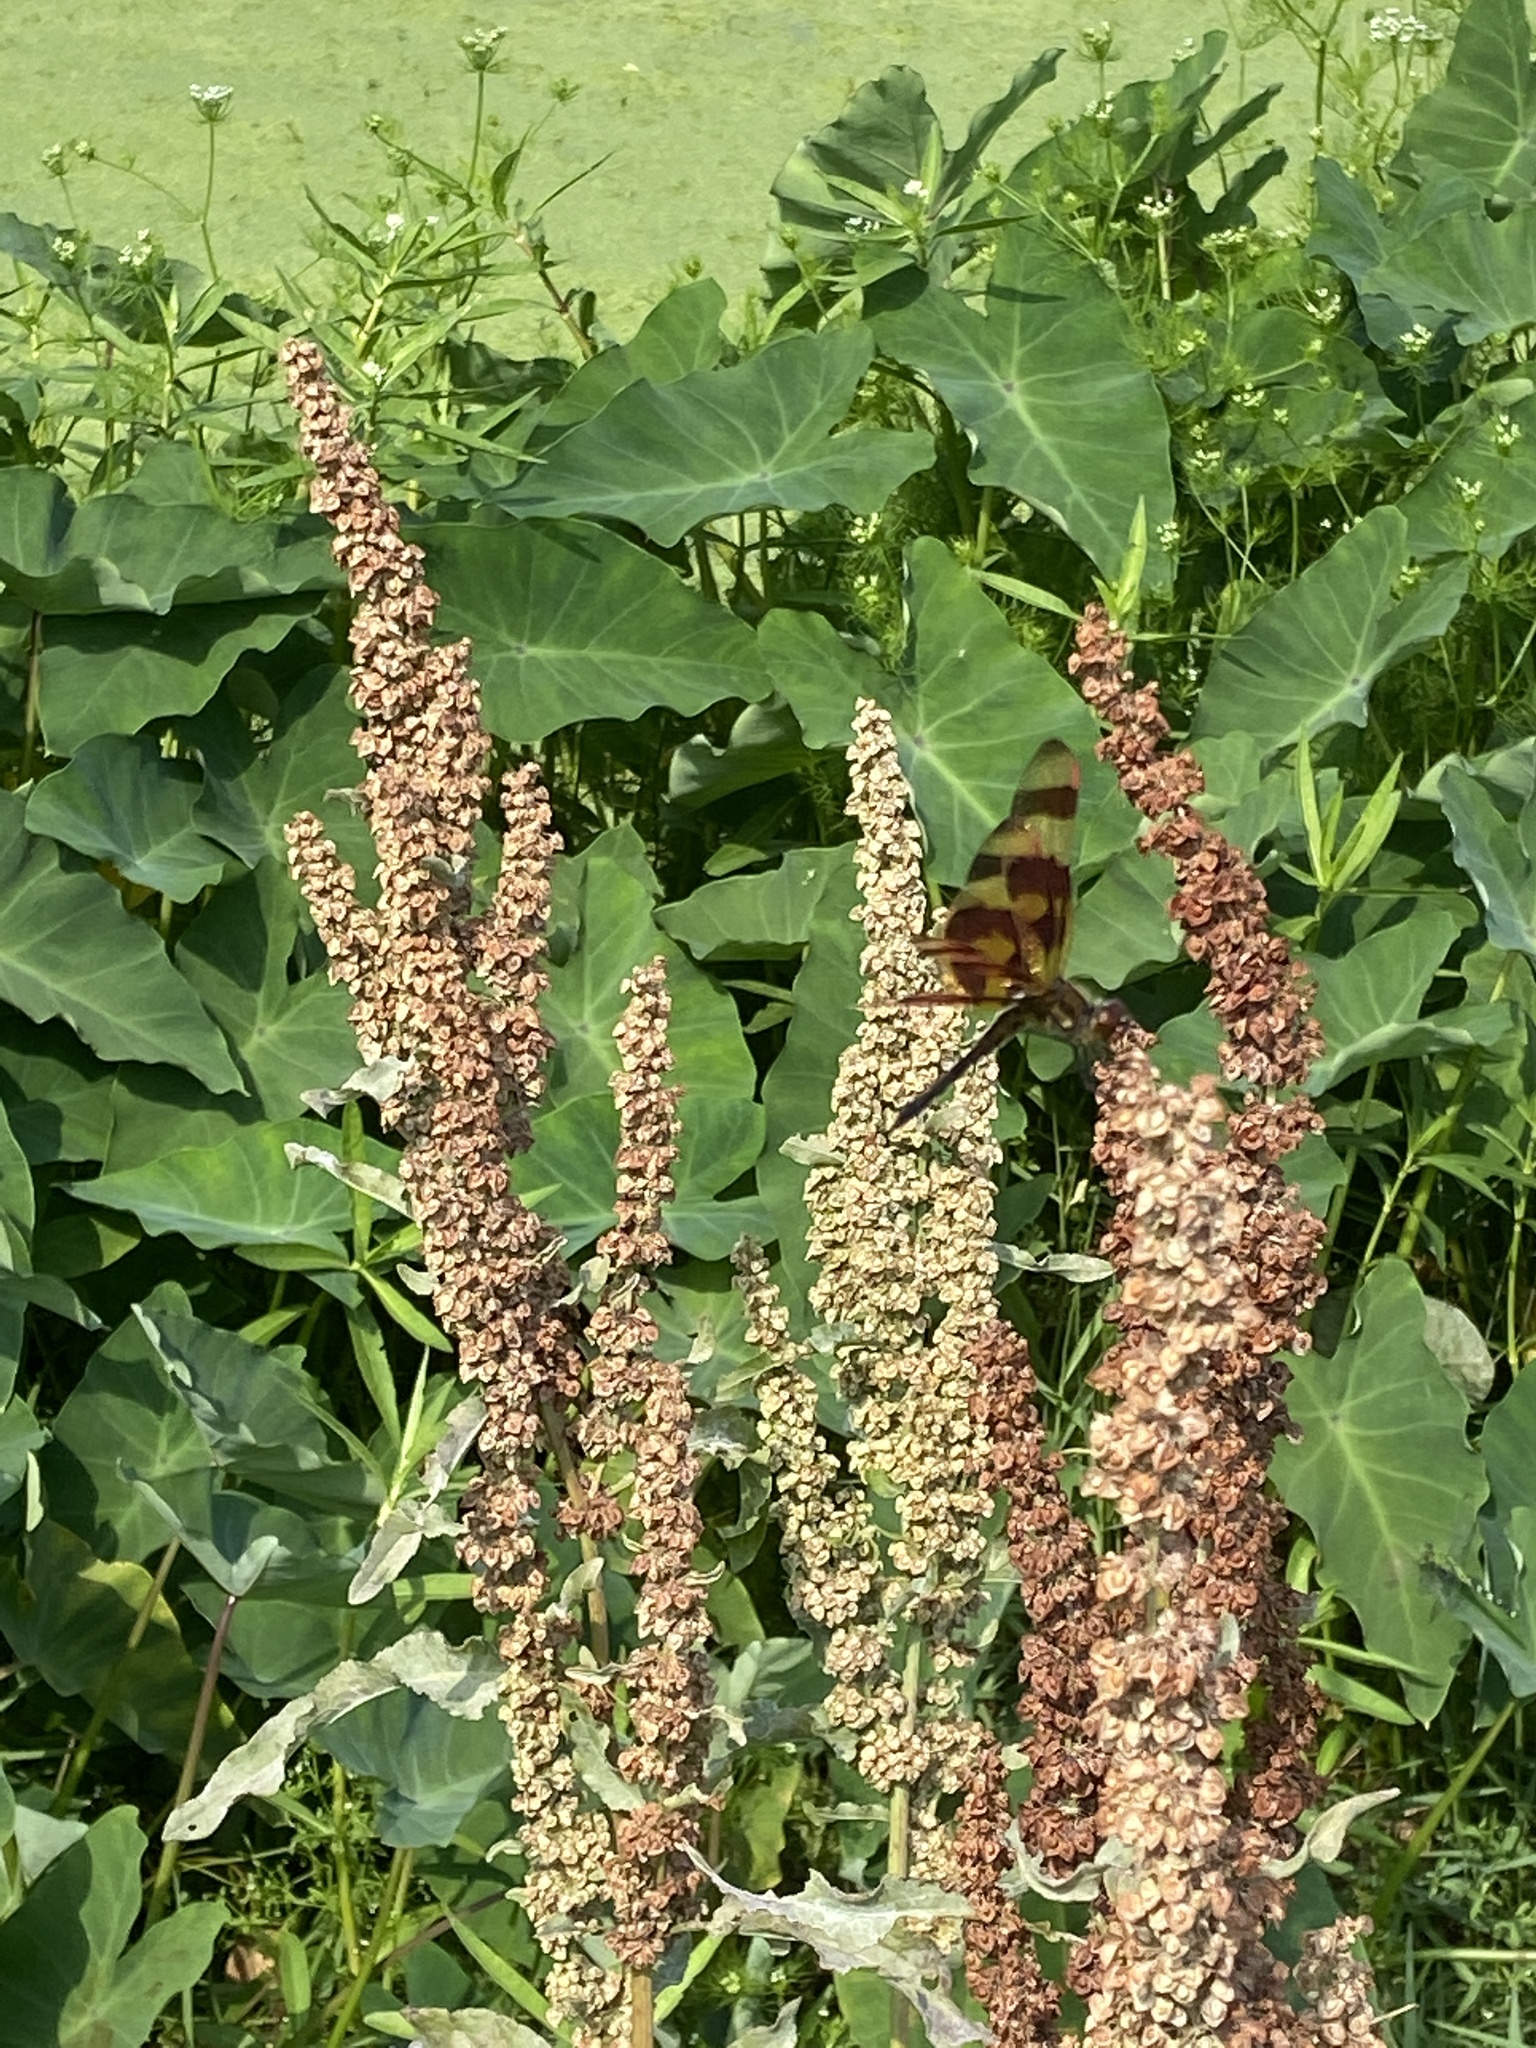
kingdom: Animalia
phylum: Arthropoda
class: Insecta
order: Odonata
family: Libellulidae
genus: Celithemis
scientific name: Celithemis eponina
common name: Halloween pennant
